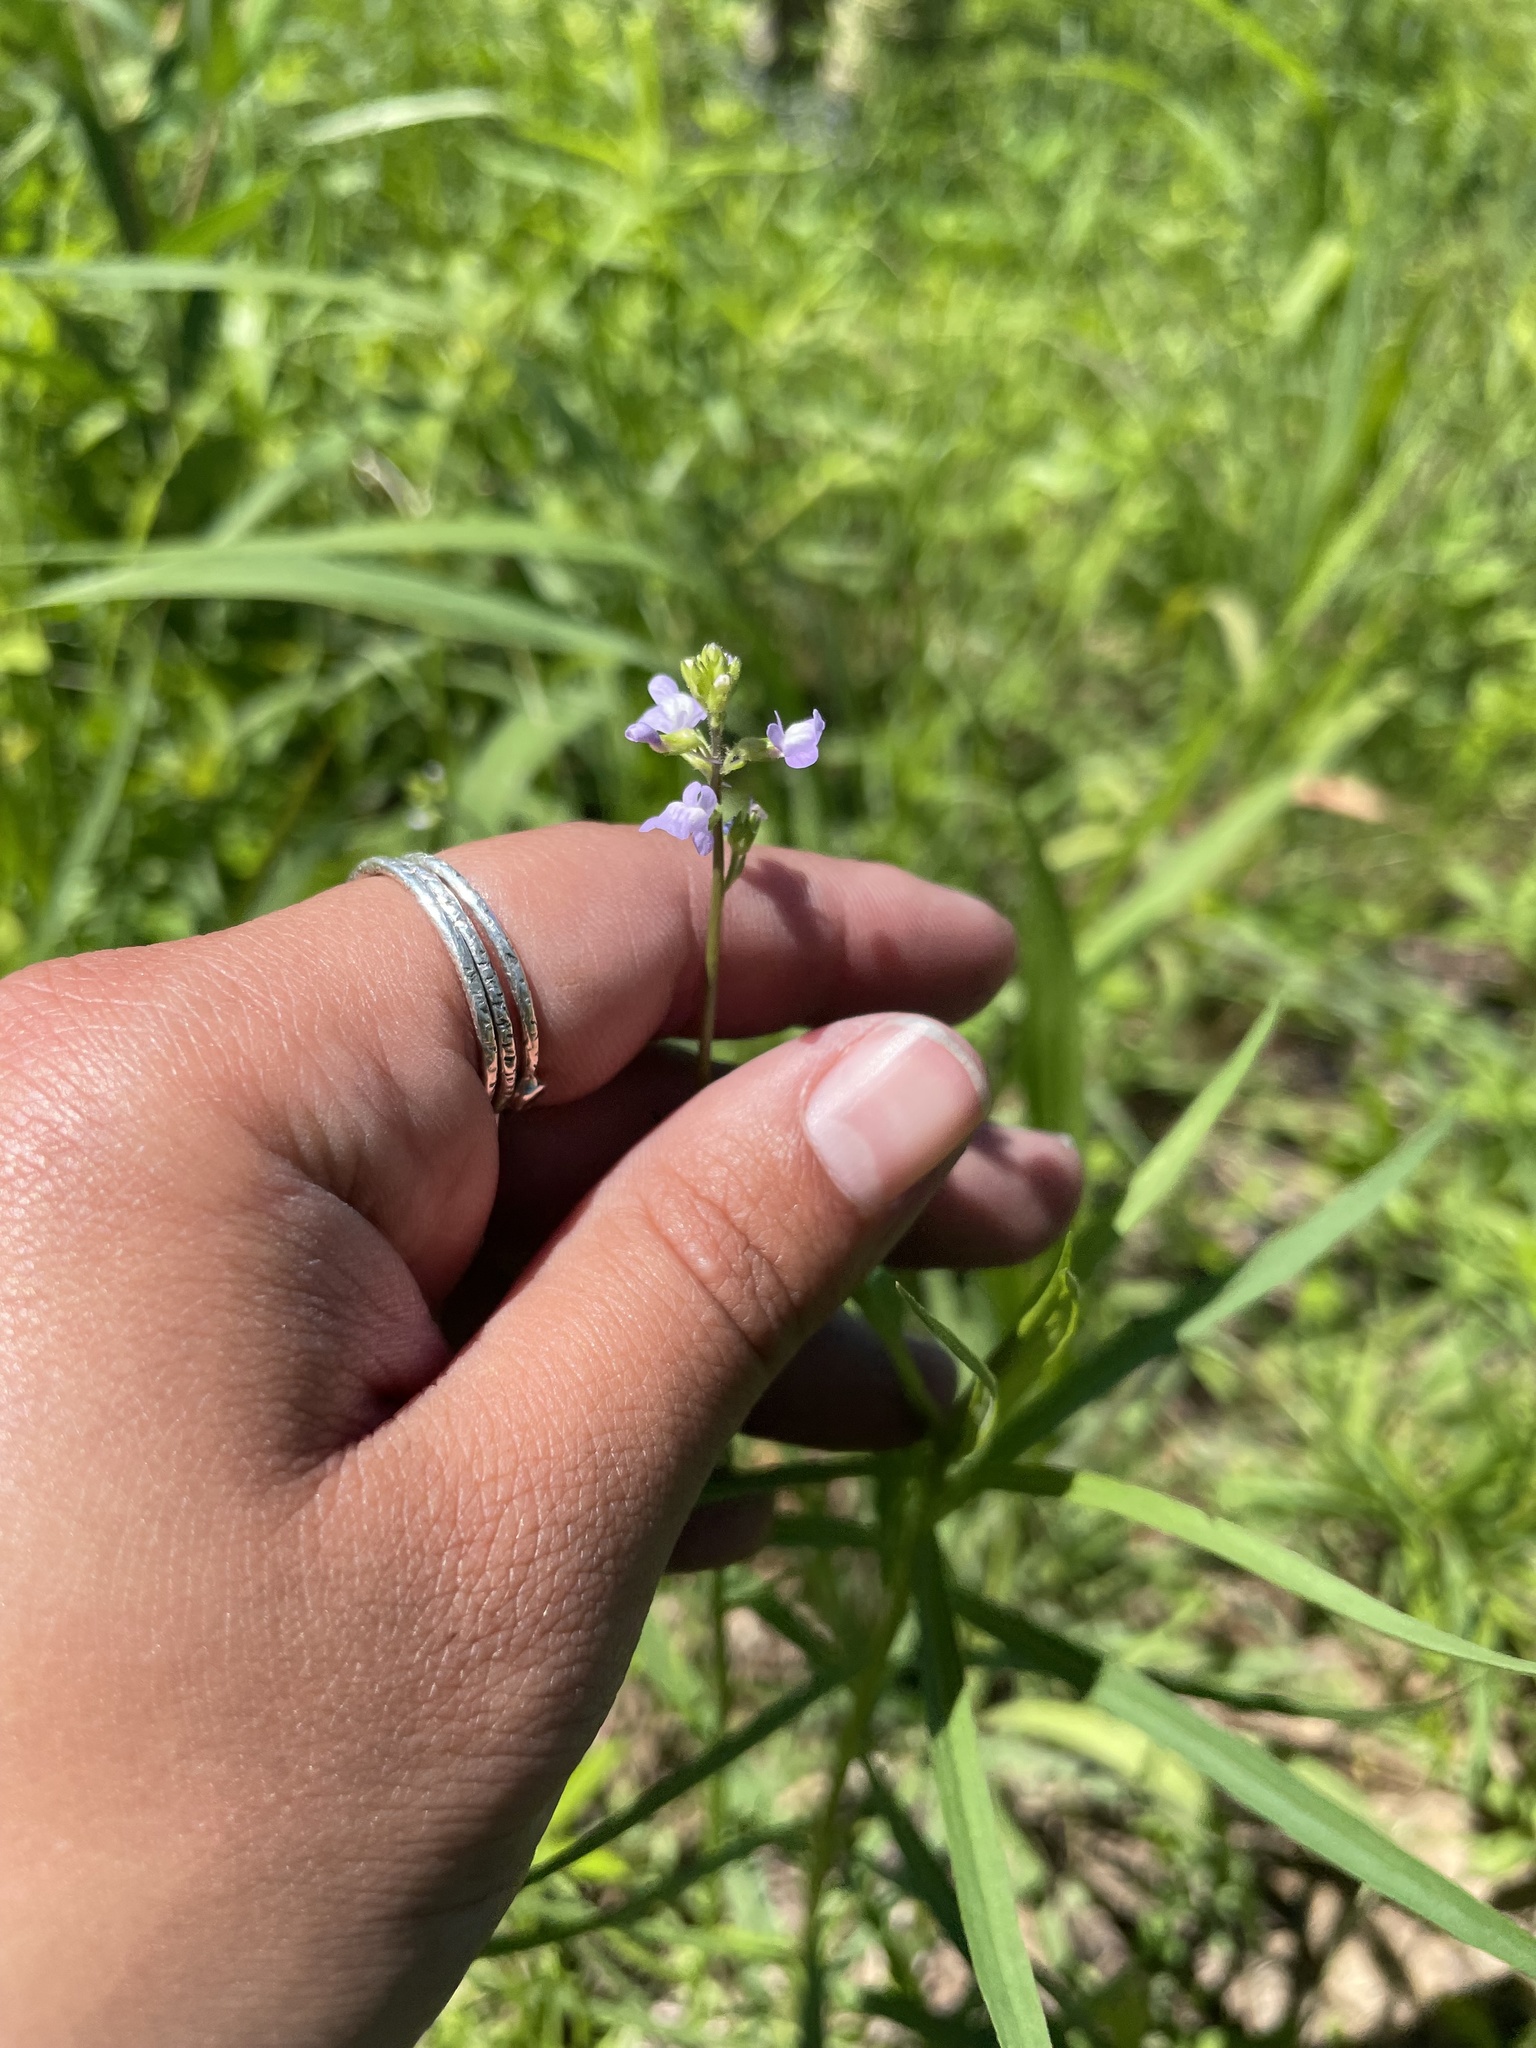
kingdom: Plantae
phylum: Tracheophyta
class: Magnoliopsida
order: Lamiales
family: Plantaginaceae
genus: Nuttallanthus
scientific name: Nuttallanthus canadensis
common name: Blue toadflax
